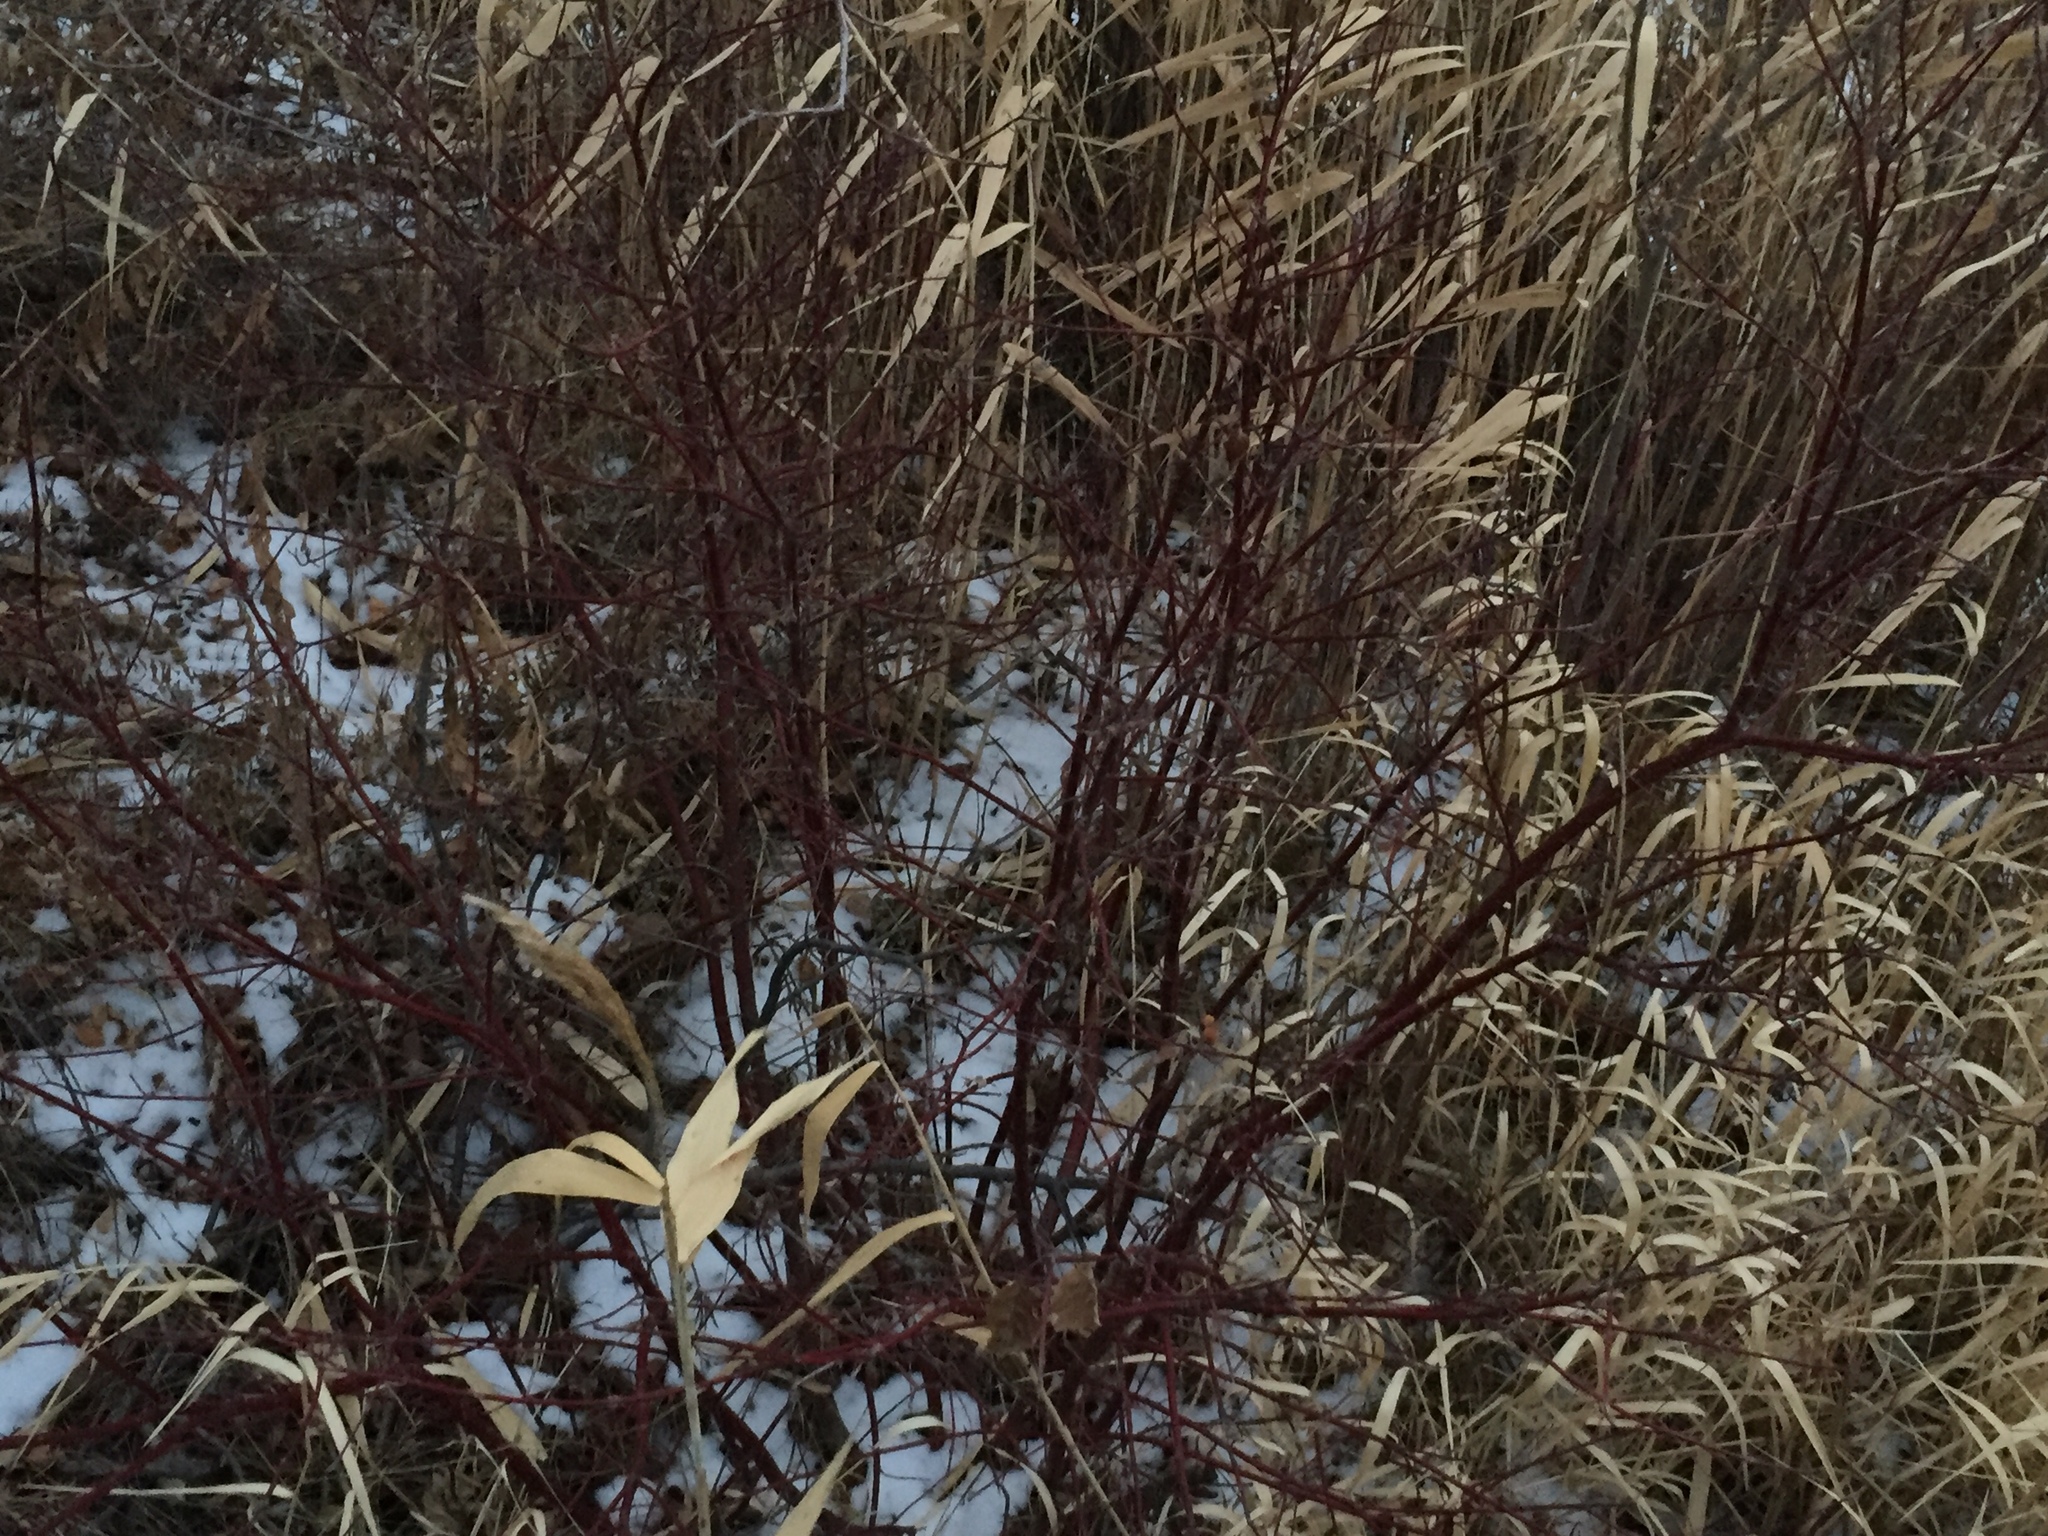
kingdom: Plantae
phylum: Tracheophyta
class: Magnoliopsida
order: Cornales
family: Cornaceae
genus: Cornus
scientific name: Cornus sericea
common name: Red-osier dogwood
